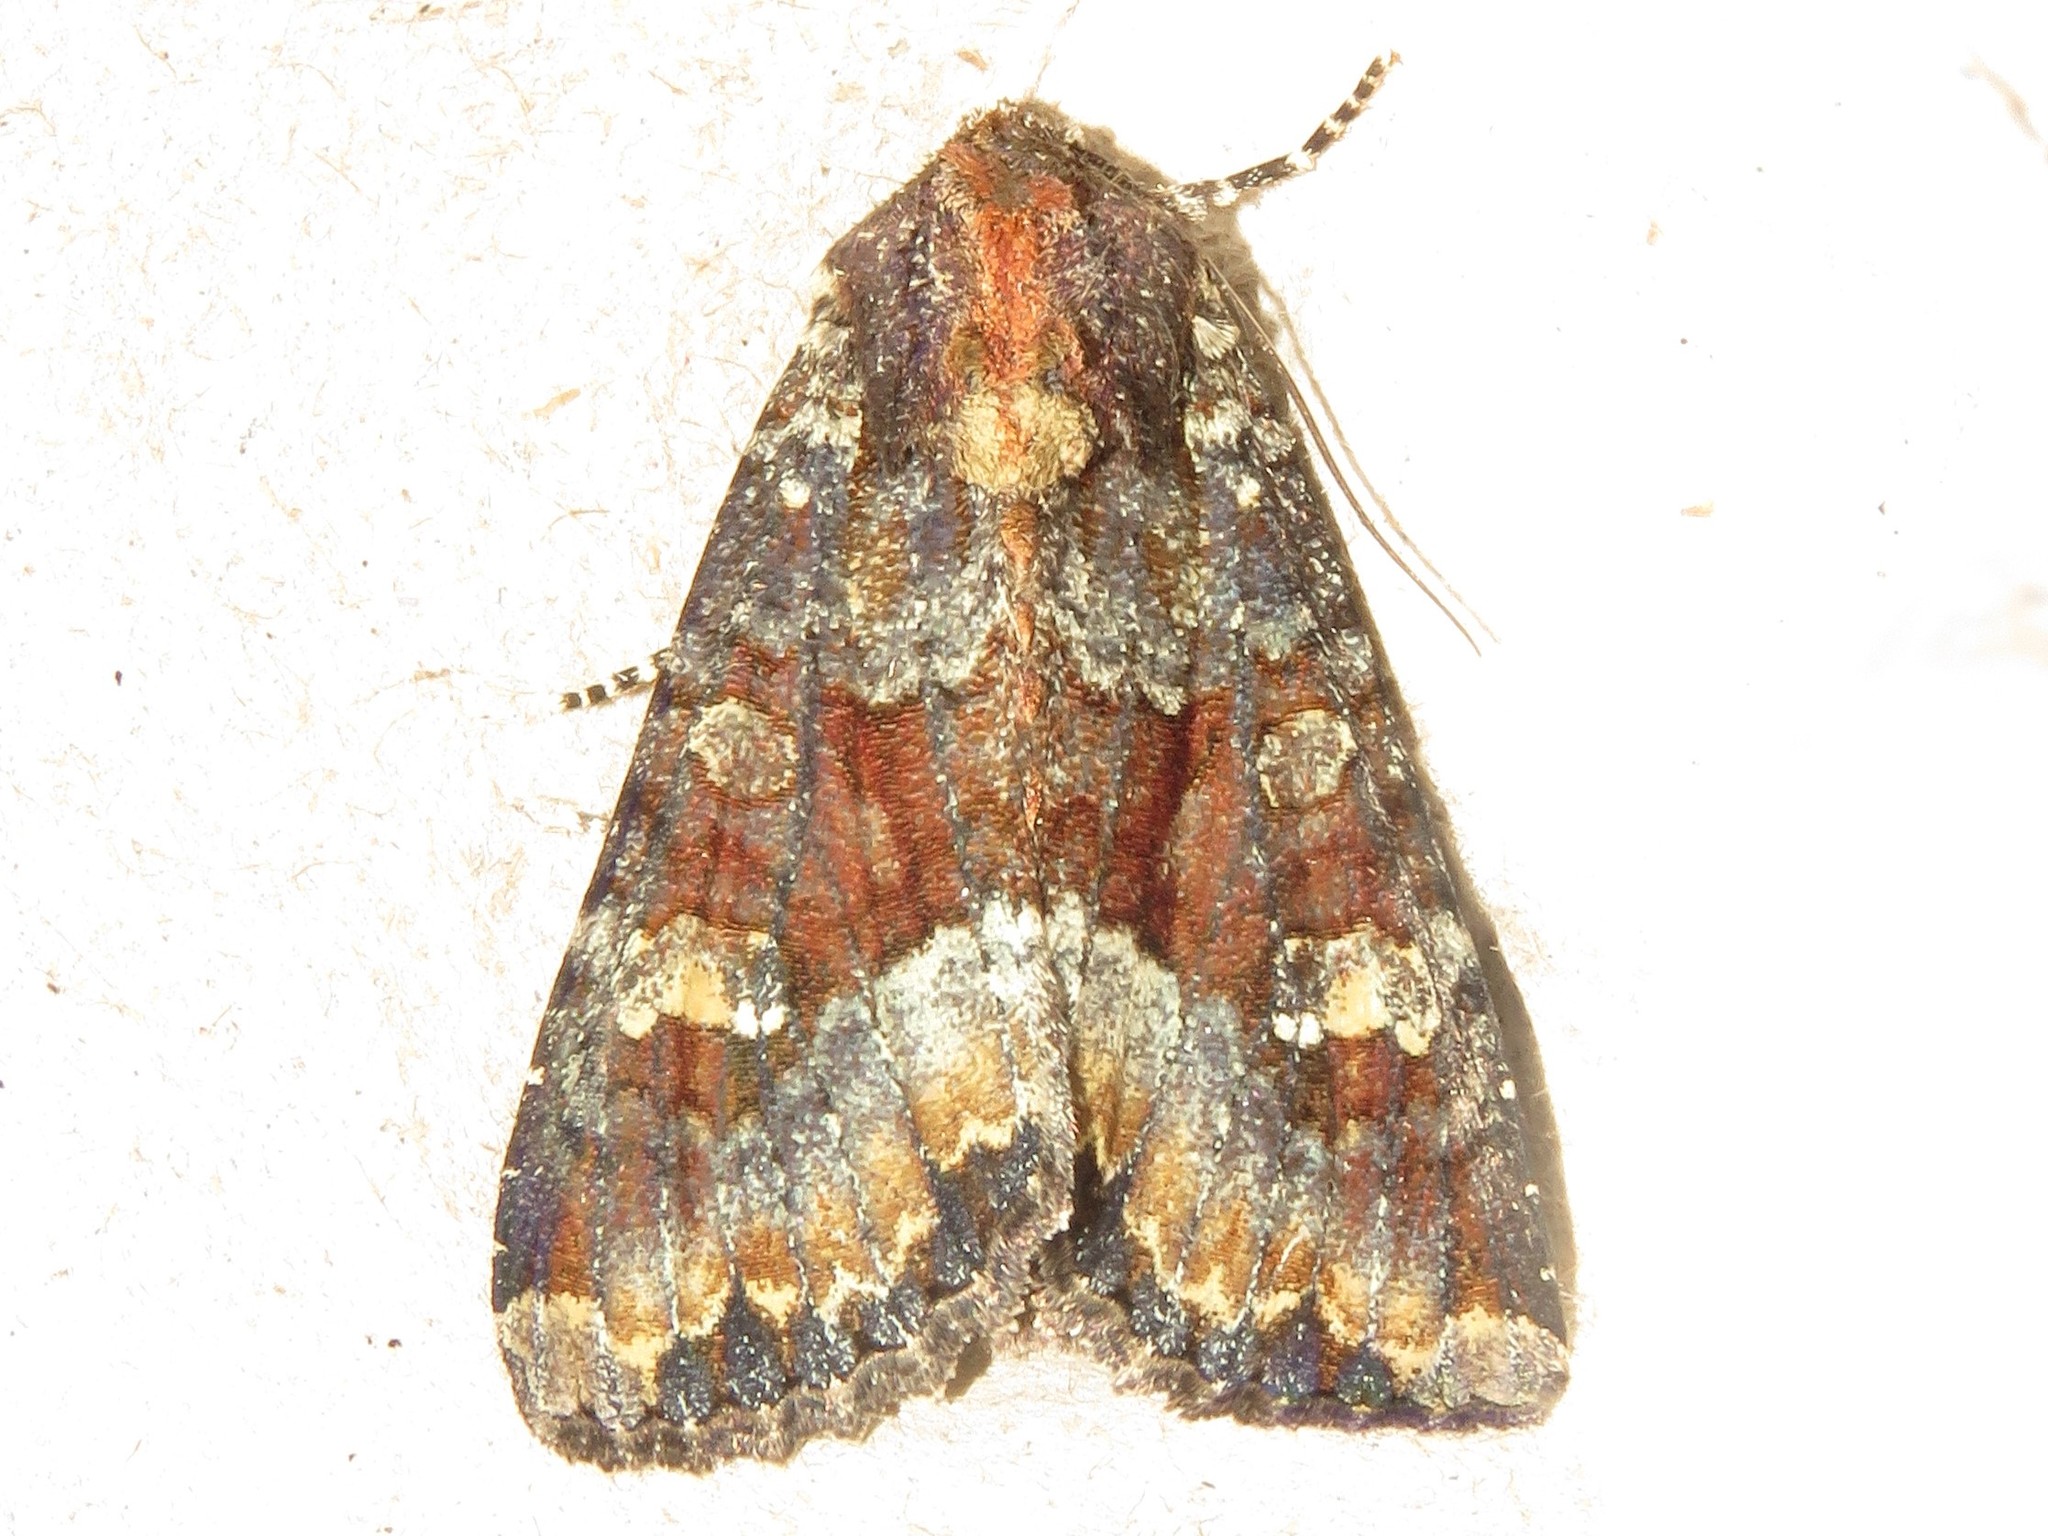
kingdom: Animalia
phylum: Arthropoda
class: Insecta
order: Lepidoptera
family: Noctuidae
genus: Apamea
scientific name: Apamea amputatrix
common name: Yellow-headed cutworm moth
